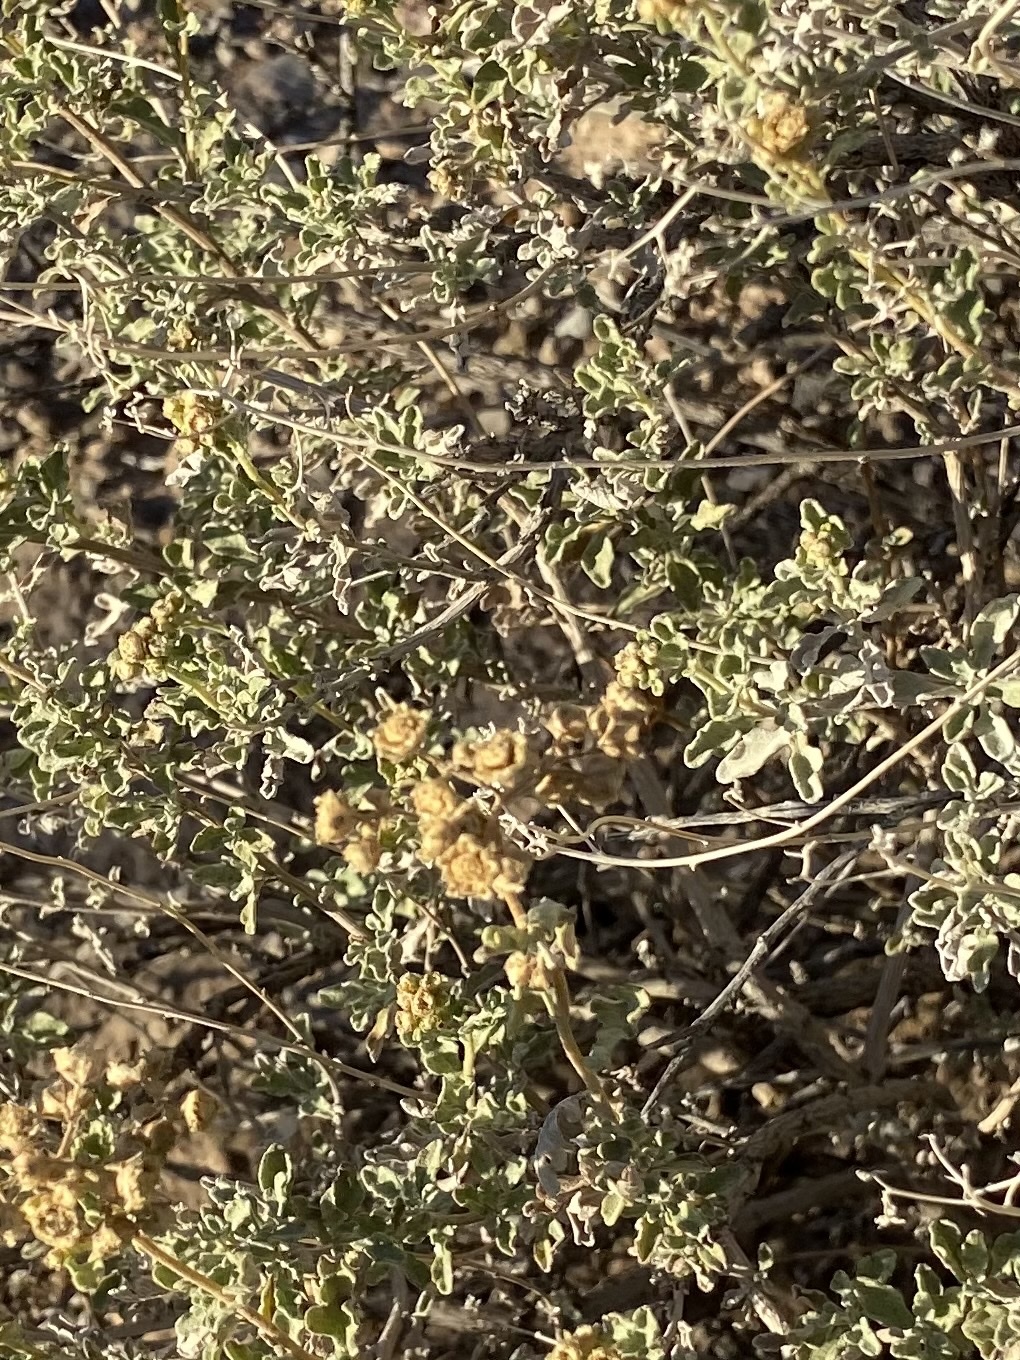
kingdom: Plantae
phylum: Tracheophyta
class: Magnoliopsida
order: Asterales
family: Asteraceae
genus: Parthenium
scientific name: Parthenium incanum
